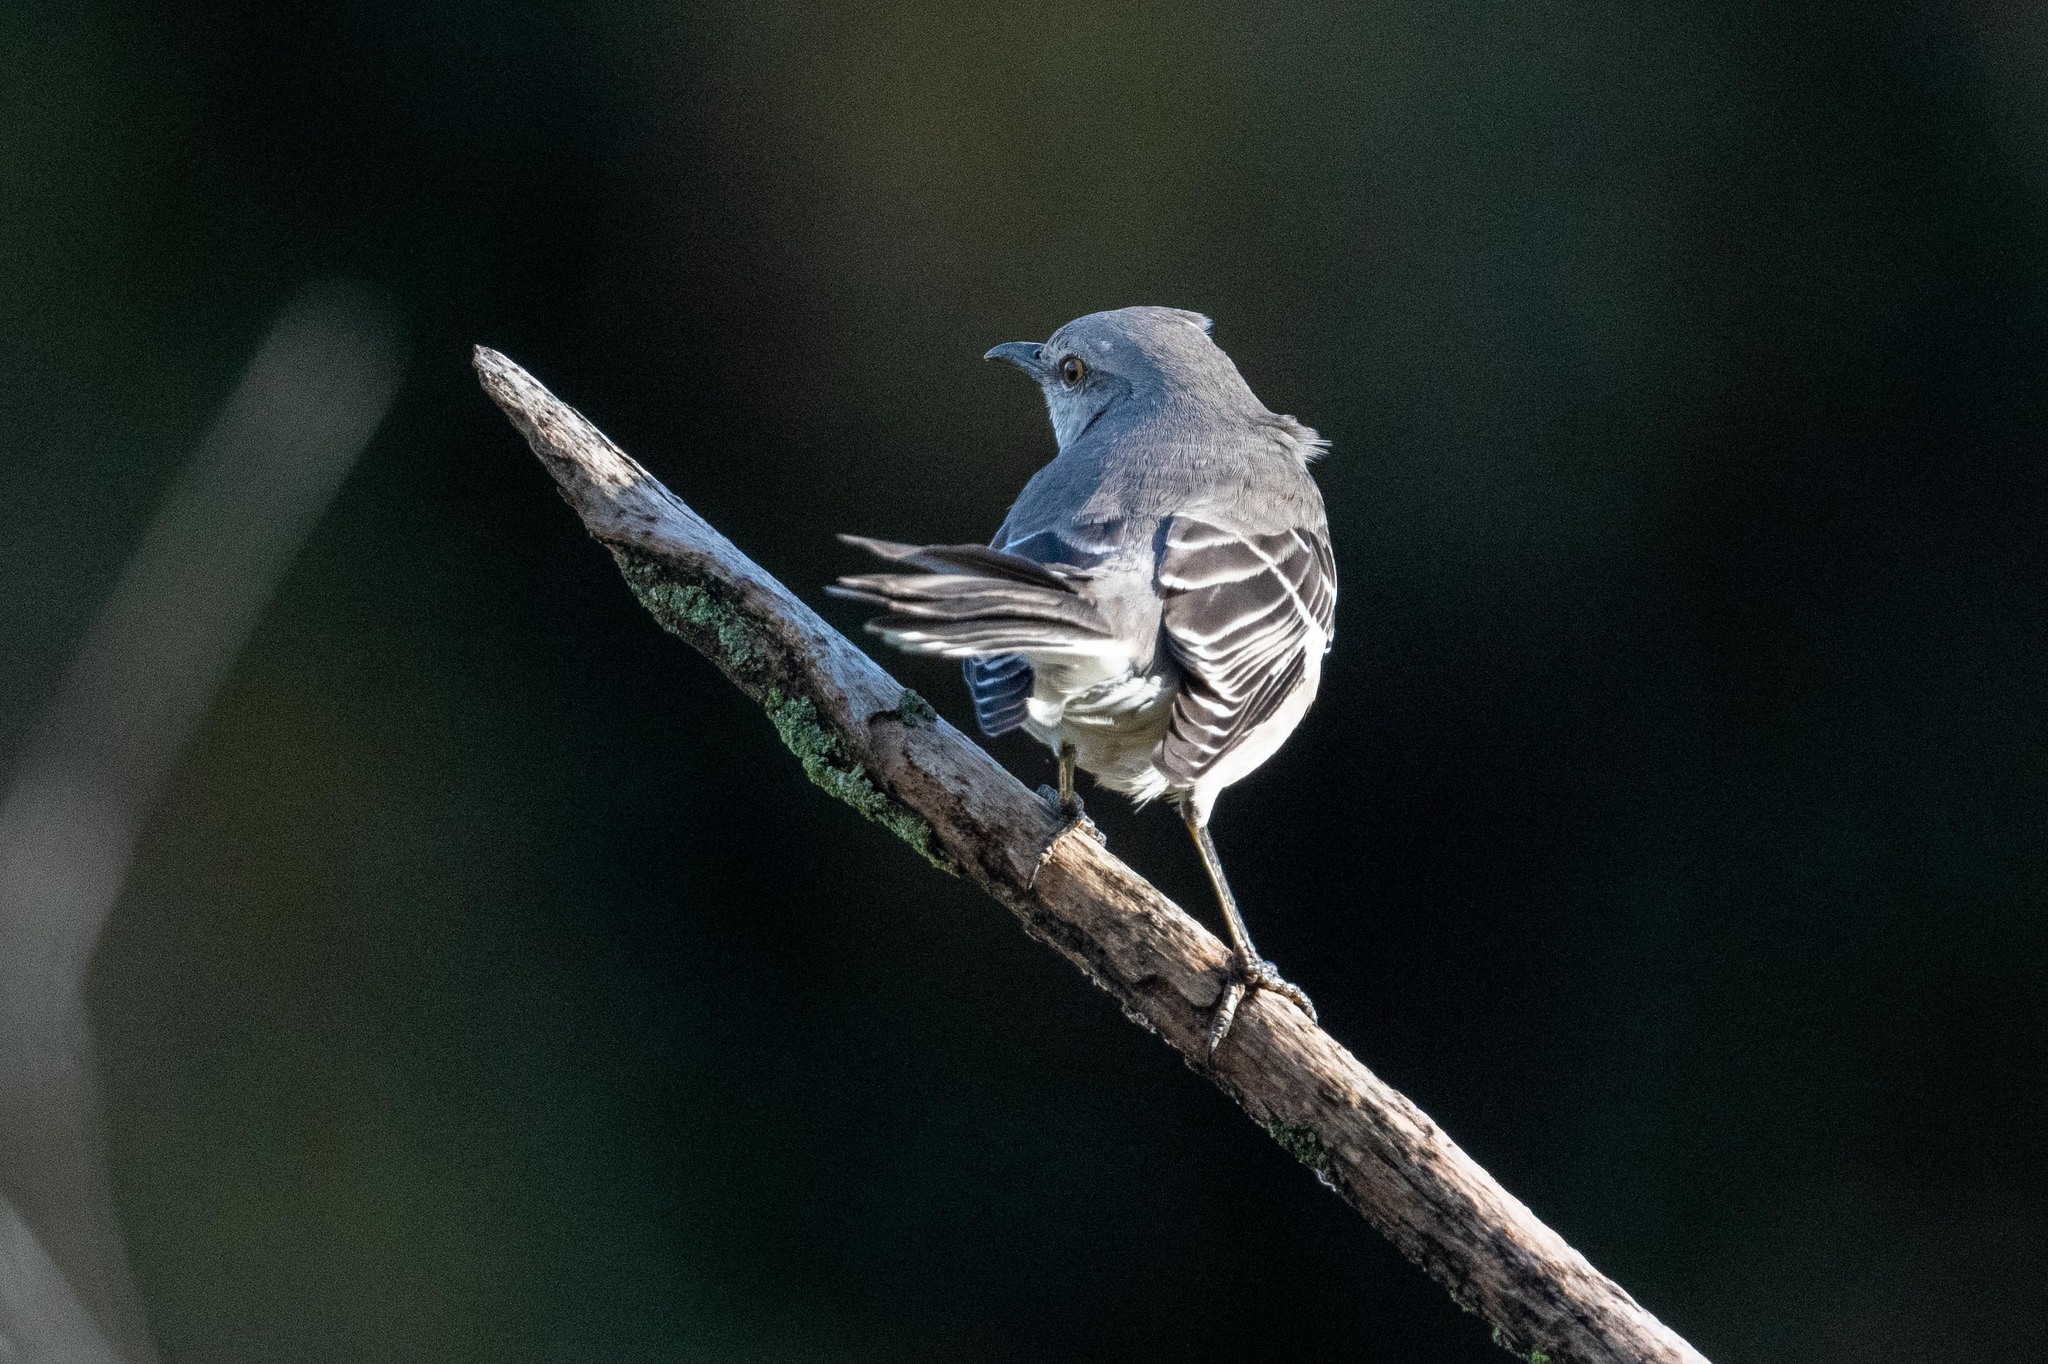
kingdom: Animalia
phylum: Chordata
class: Aves
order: Passeriformes
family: Mimidae
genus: Mimus
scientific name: Mimus polyglottos
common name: Northern mockingbird
